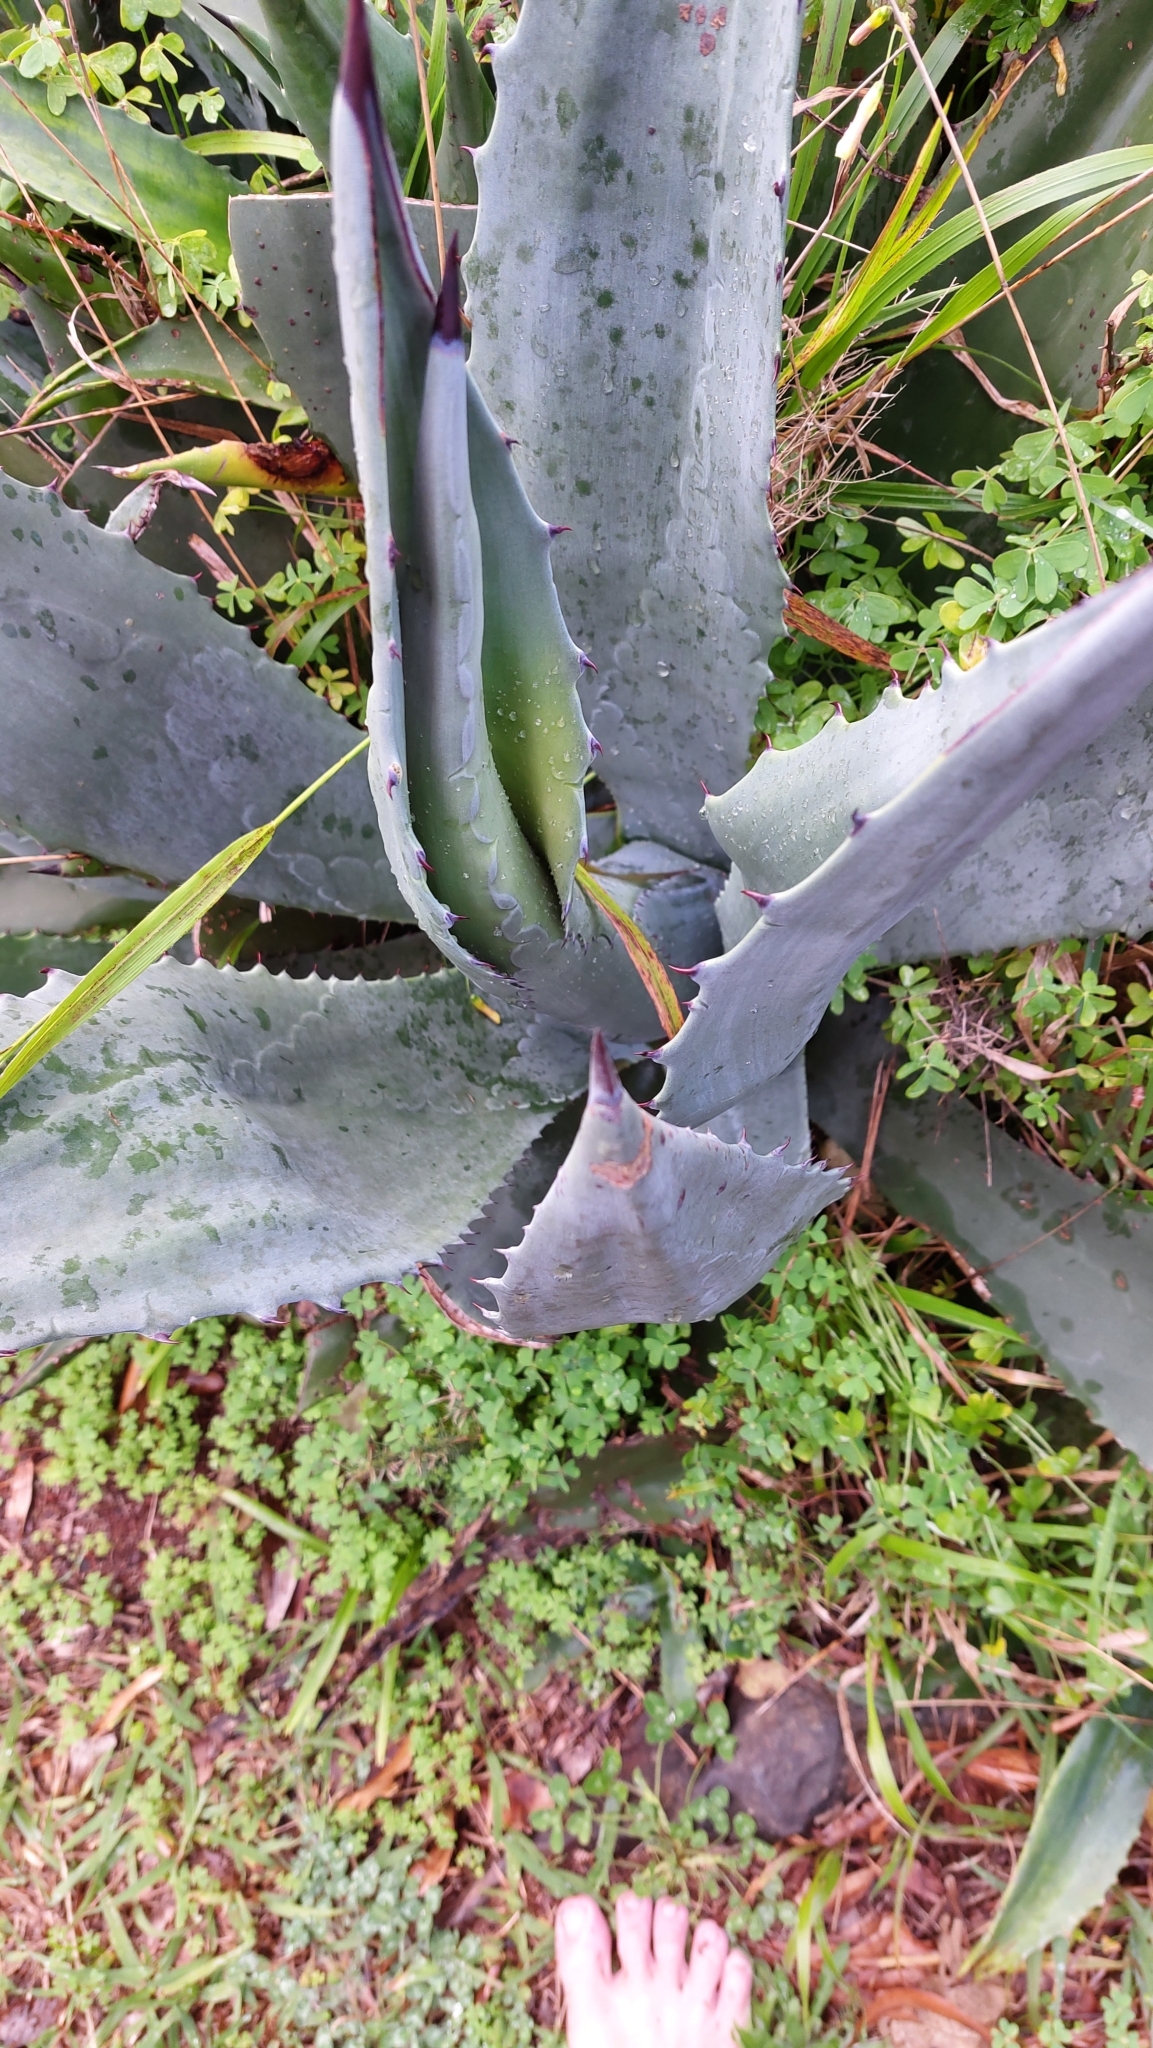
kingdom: Plantae
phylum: Tracheophyta
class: Liliopsida
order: Asparagales
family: Asparagaceae
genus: Agave
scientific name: Agave americana
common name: Centuryplant
